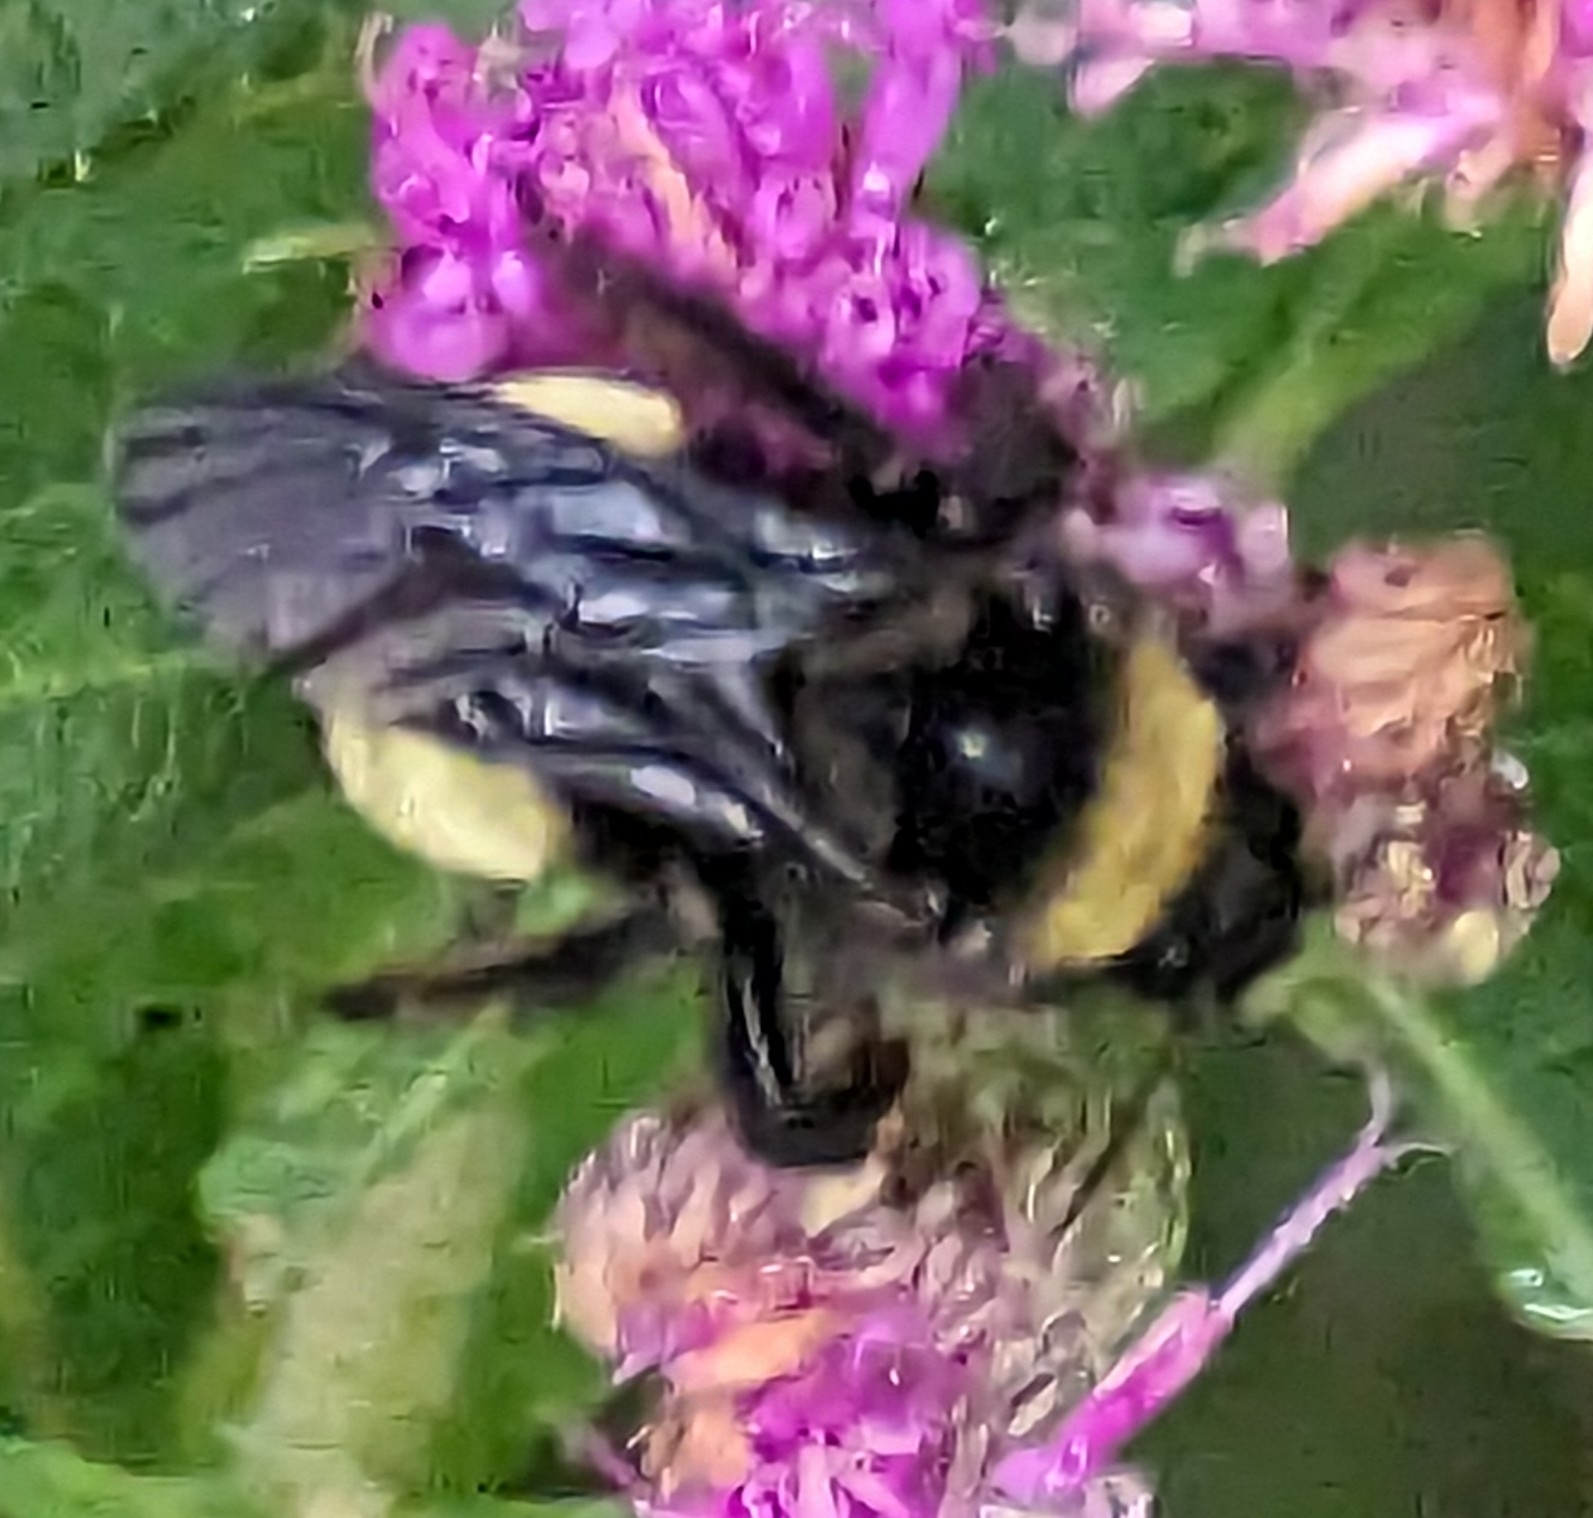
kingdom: Animalia
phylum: Arthropoda
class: Insecta
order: Hymenoptera
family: Apidae
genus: Bombus
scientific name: Bombus pensylvanicus
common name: Bumble bee
